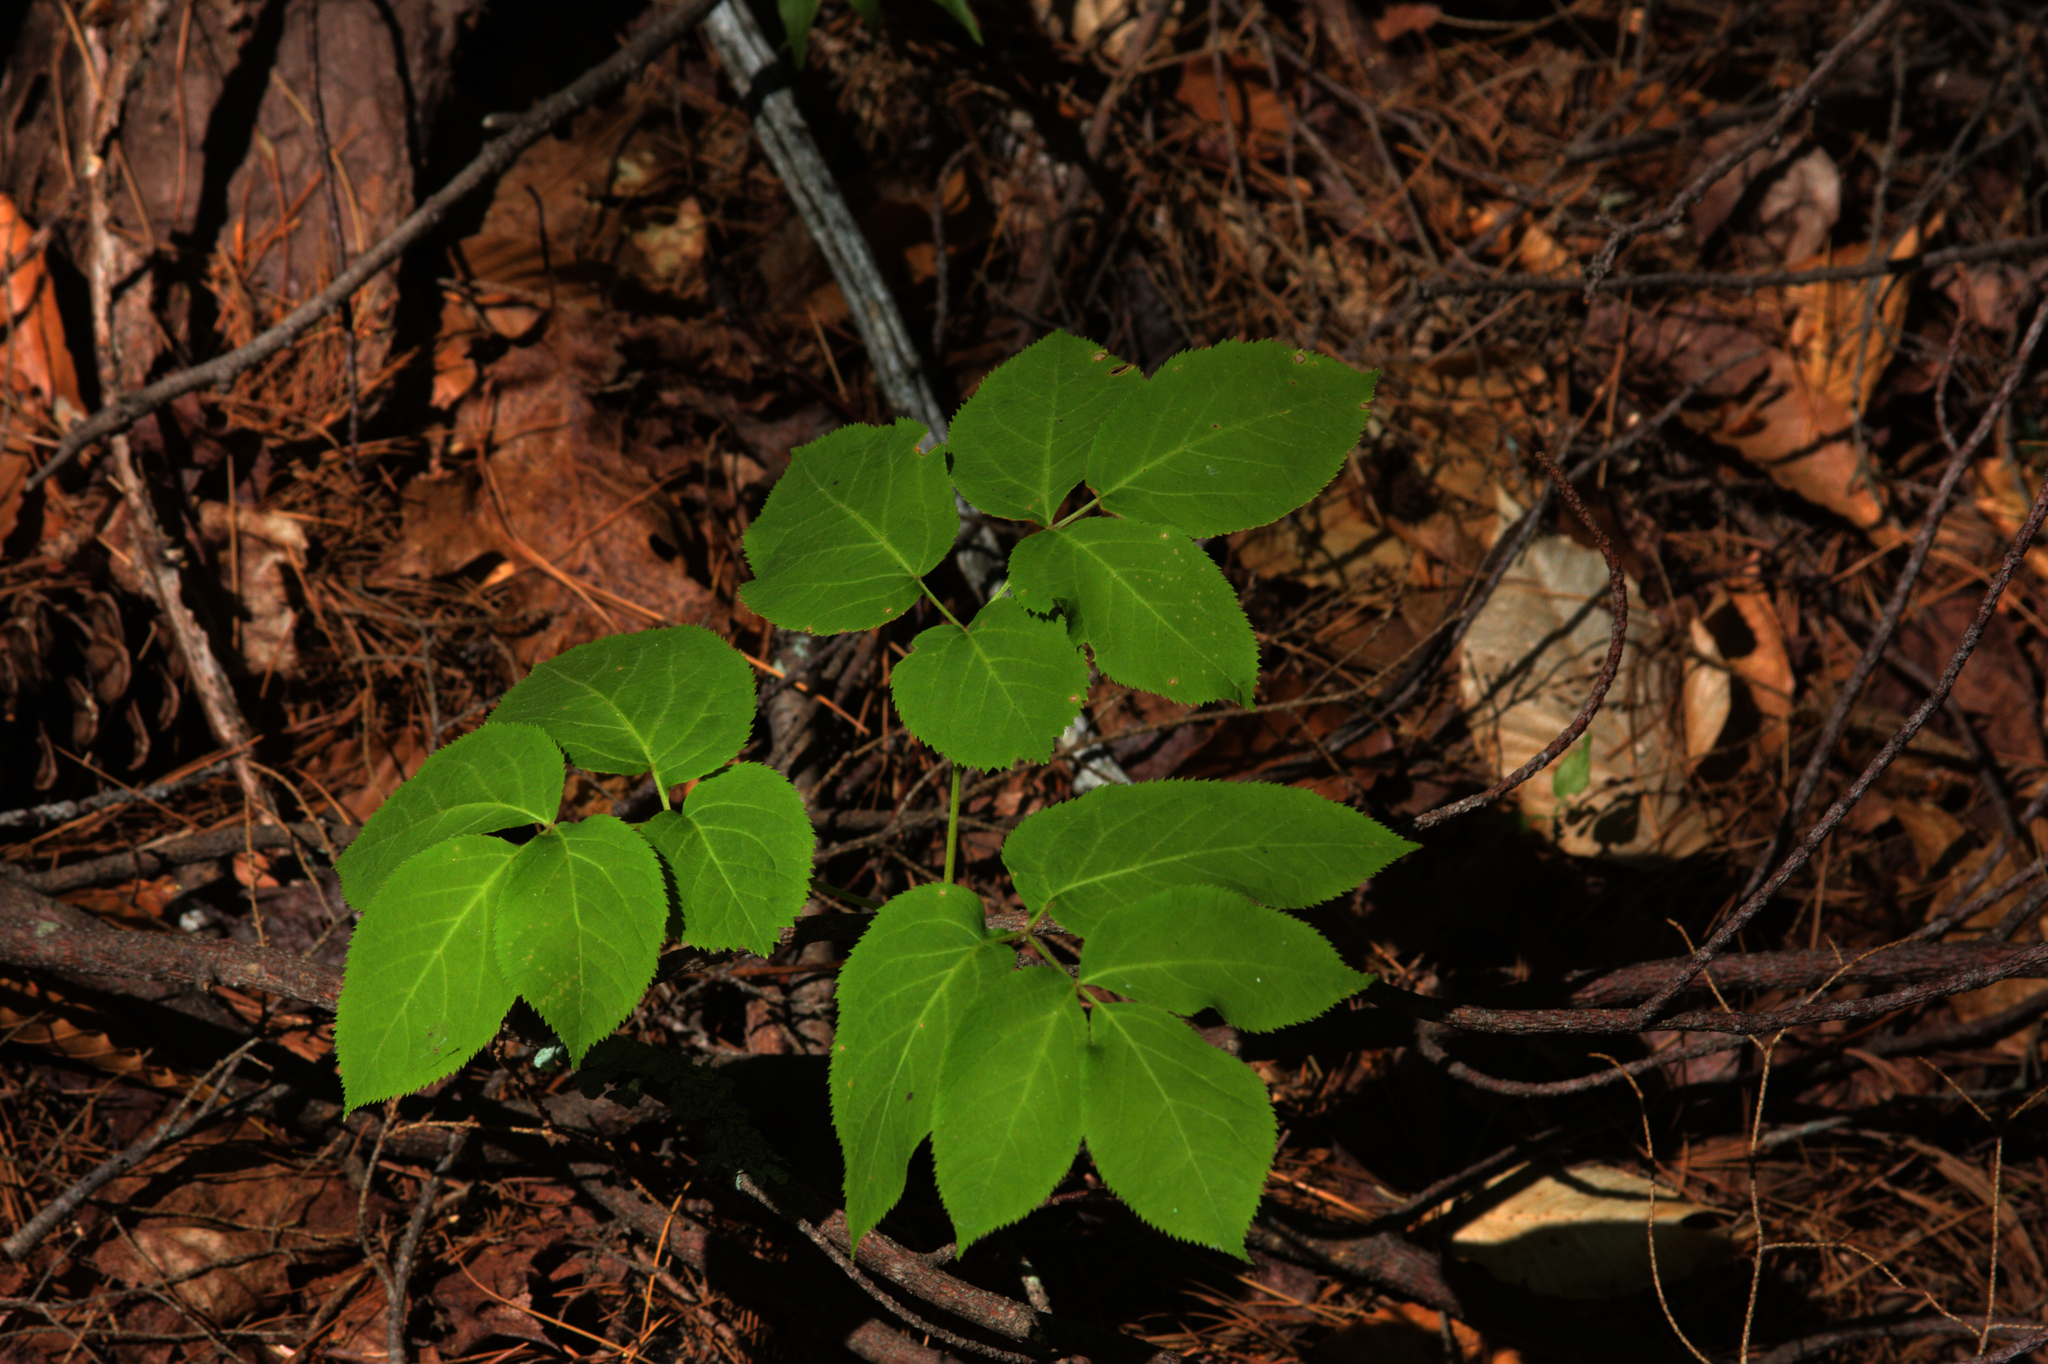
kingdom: Plantae
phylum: Tracheophyta
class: Magnoliopsida
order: Apiales
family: Araliaceae
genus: Aralia
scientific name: Aralia nudicaulis
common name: Wild sarsaparilla
